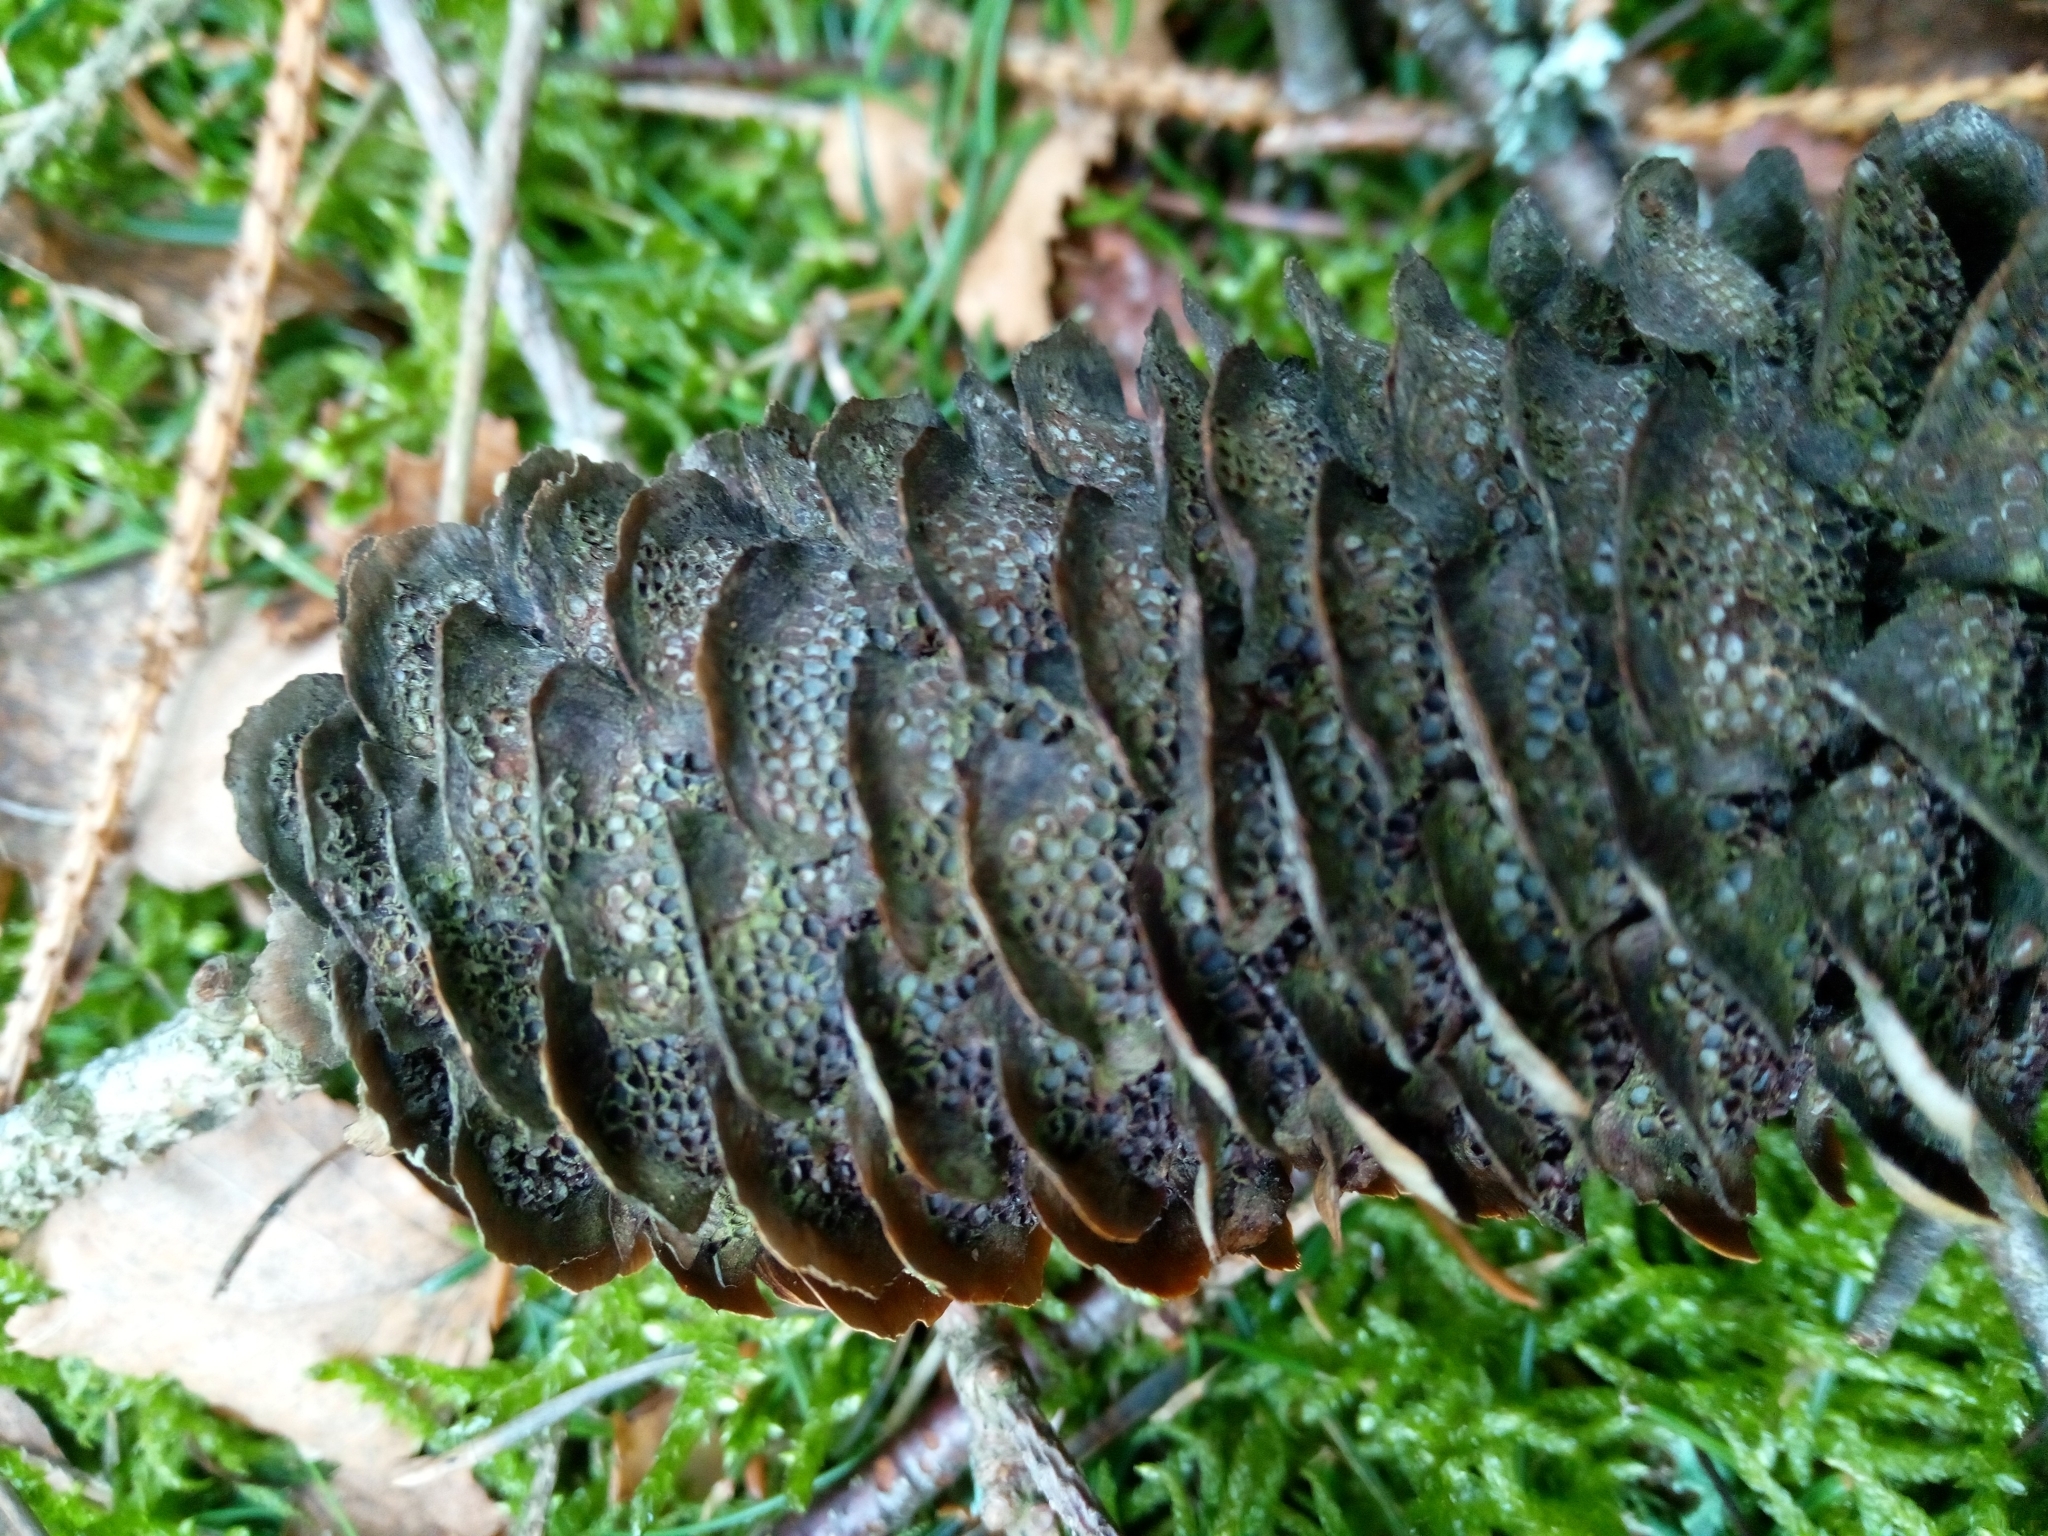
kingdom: Fungi
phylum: Basidiomycota
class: Pucciniomycetes
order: Pucciniales
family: Pucciniastraceae
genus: Thekopsora
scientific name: Thekopsora areolata
